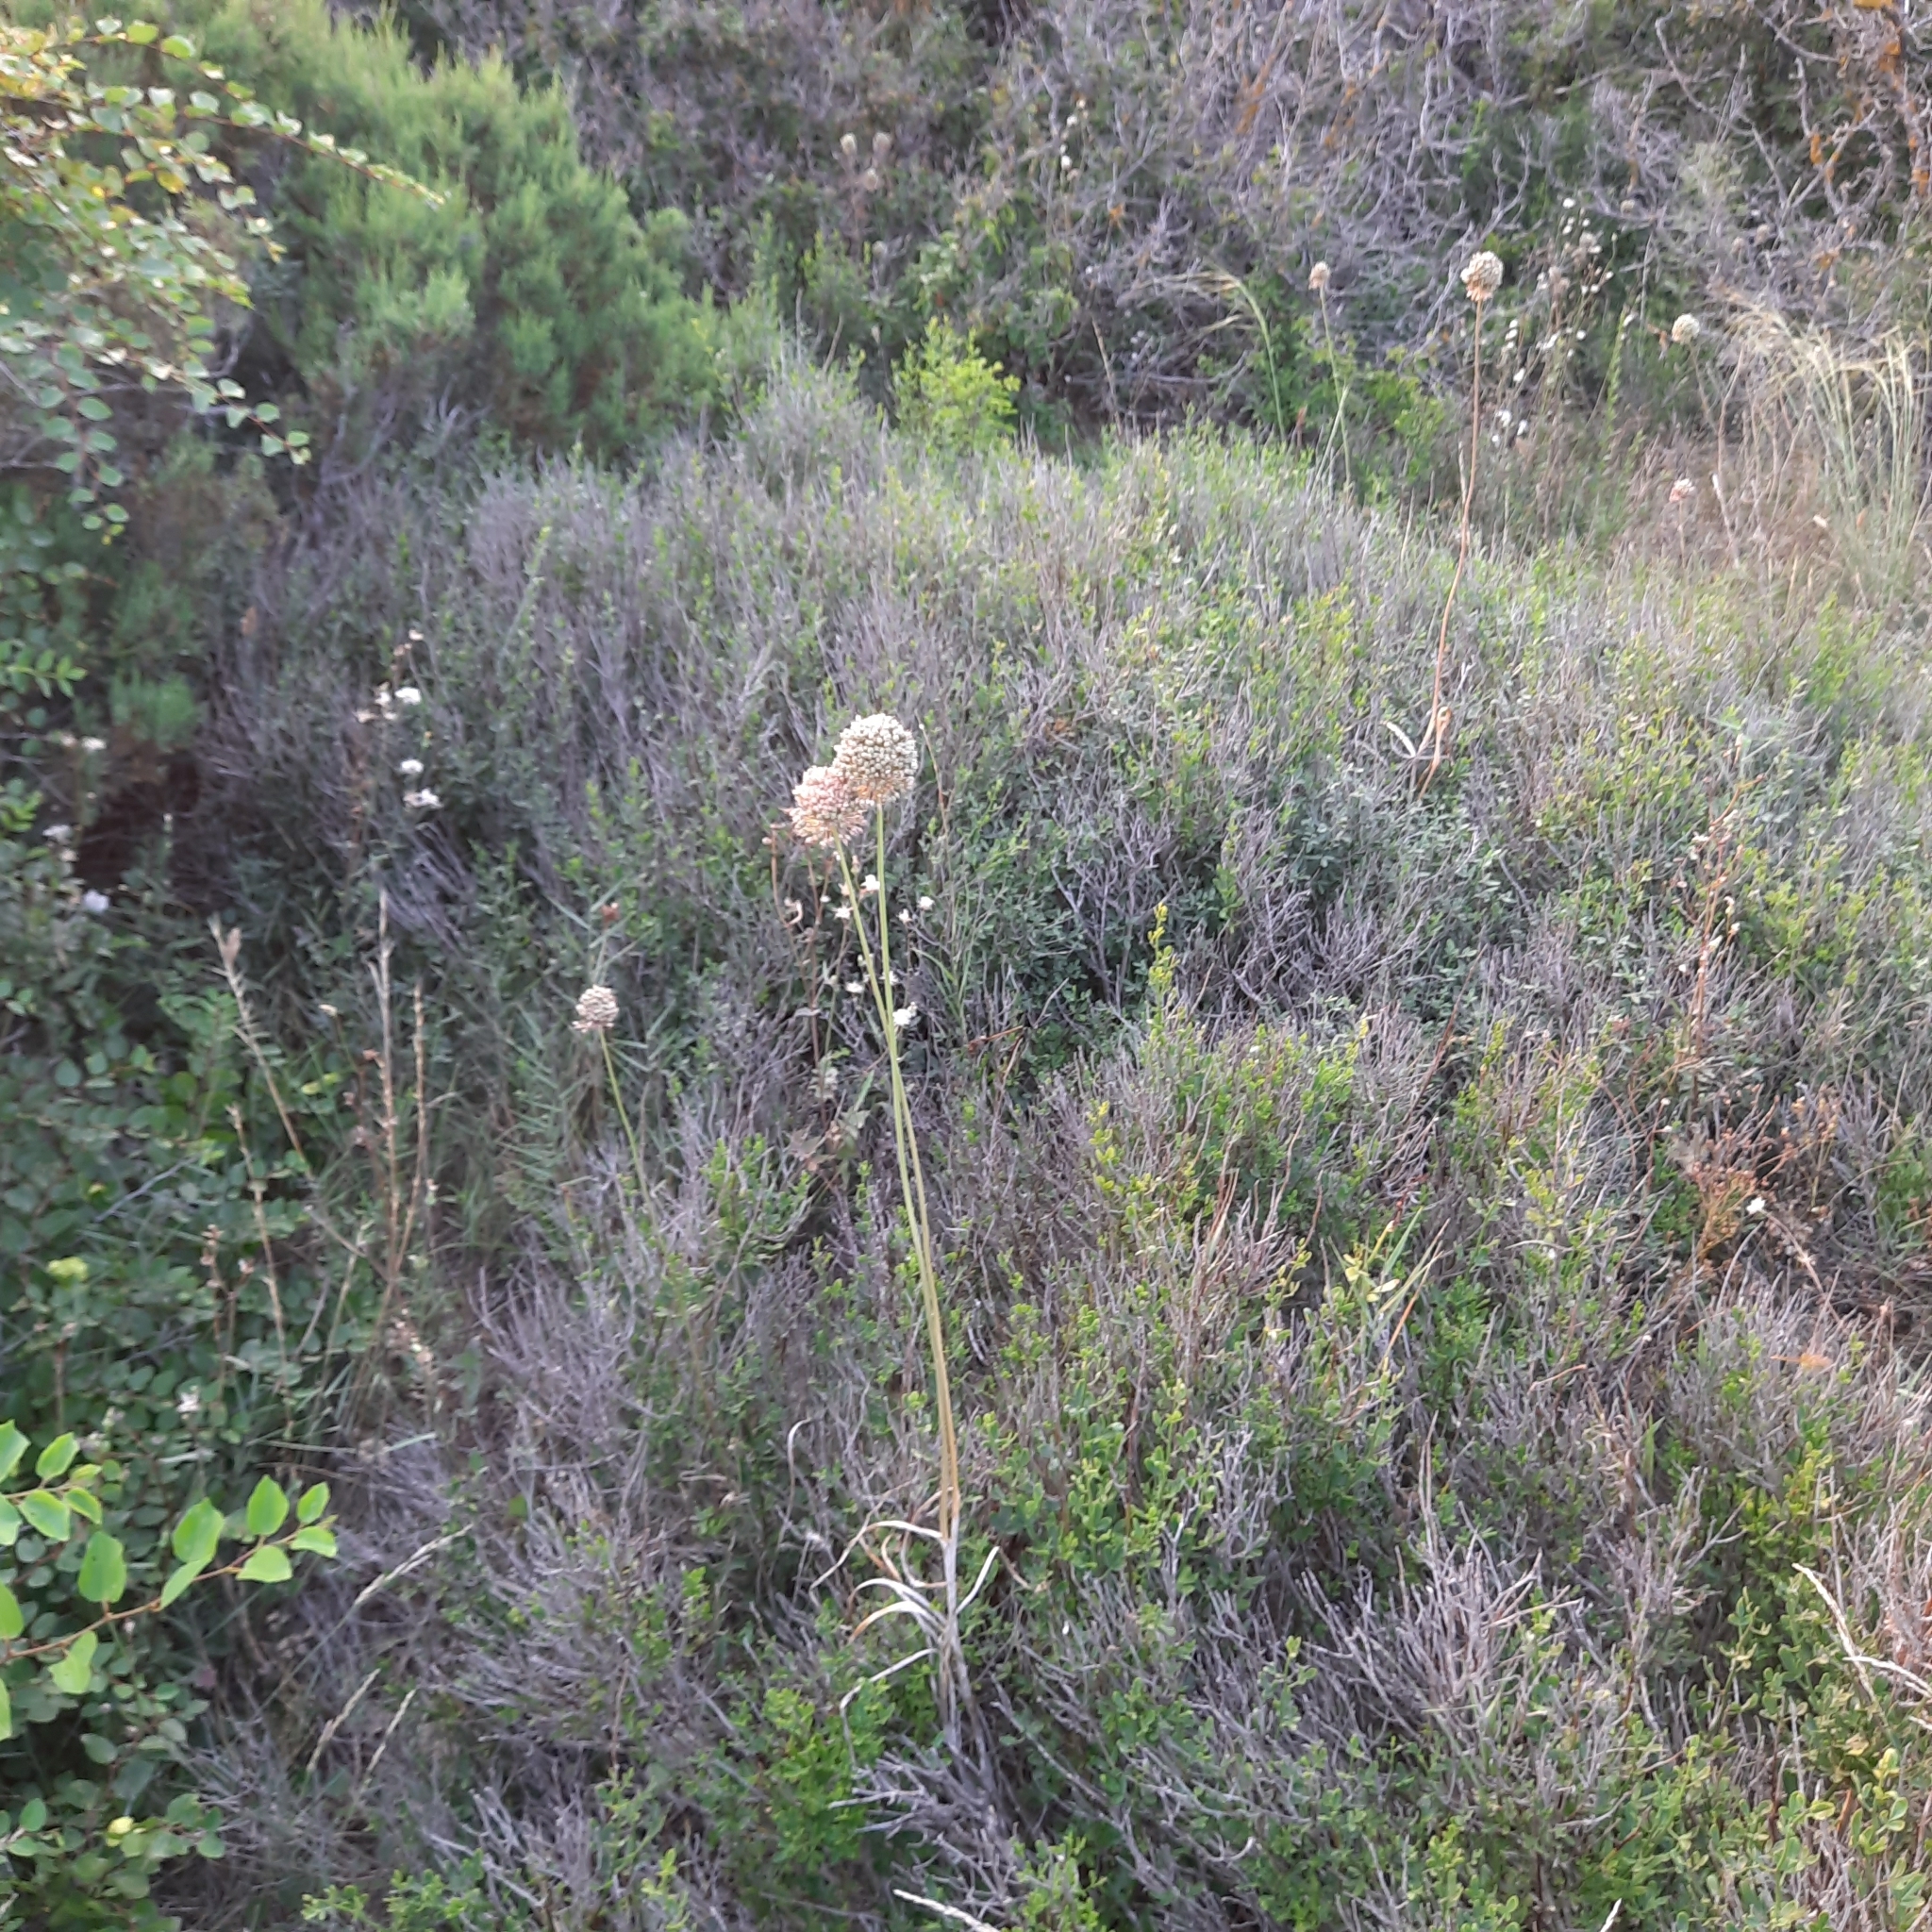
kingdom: Plantae
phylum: Tracheophyta
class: Liliopsida
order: Asparagales
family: Amaryllidaceae
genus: Allium
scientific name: Allium atroviolaceum
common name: Broadleaf wild leek
